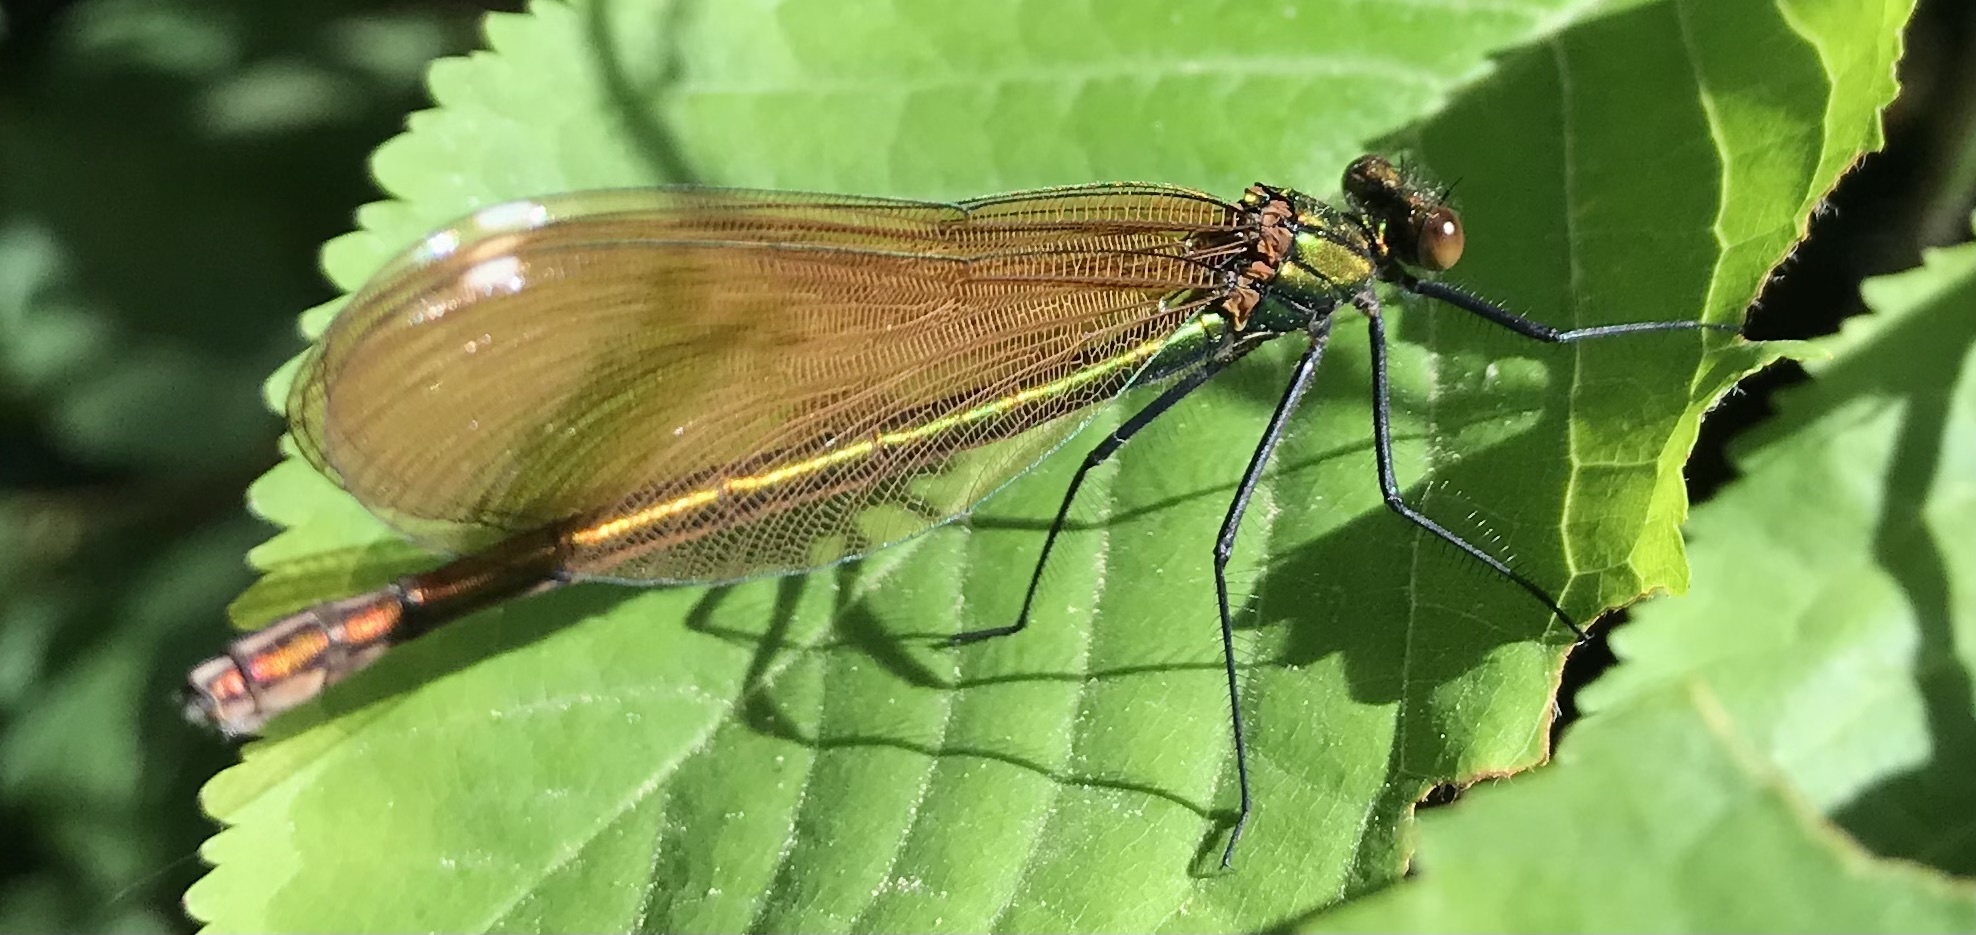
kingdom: Animalia
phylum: Arthropoda
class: Insecta
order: Odonata
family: Calopterygidae
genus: Calopteryx
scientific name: Calopteryx virgo
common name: Beautiful demoiselle
